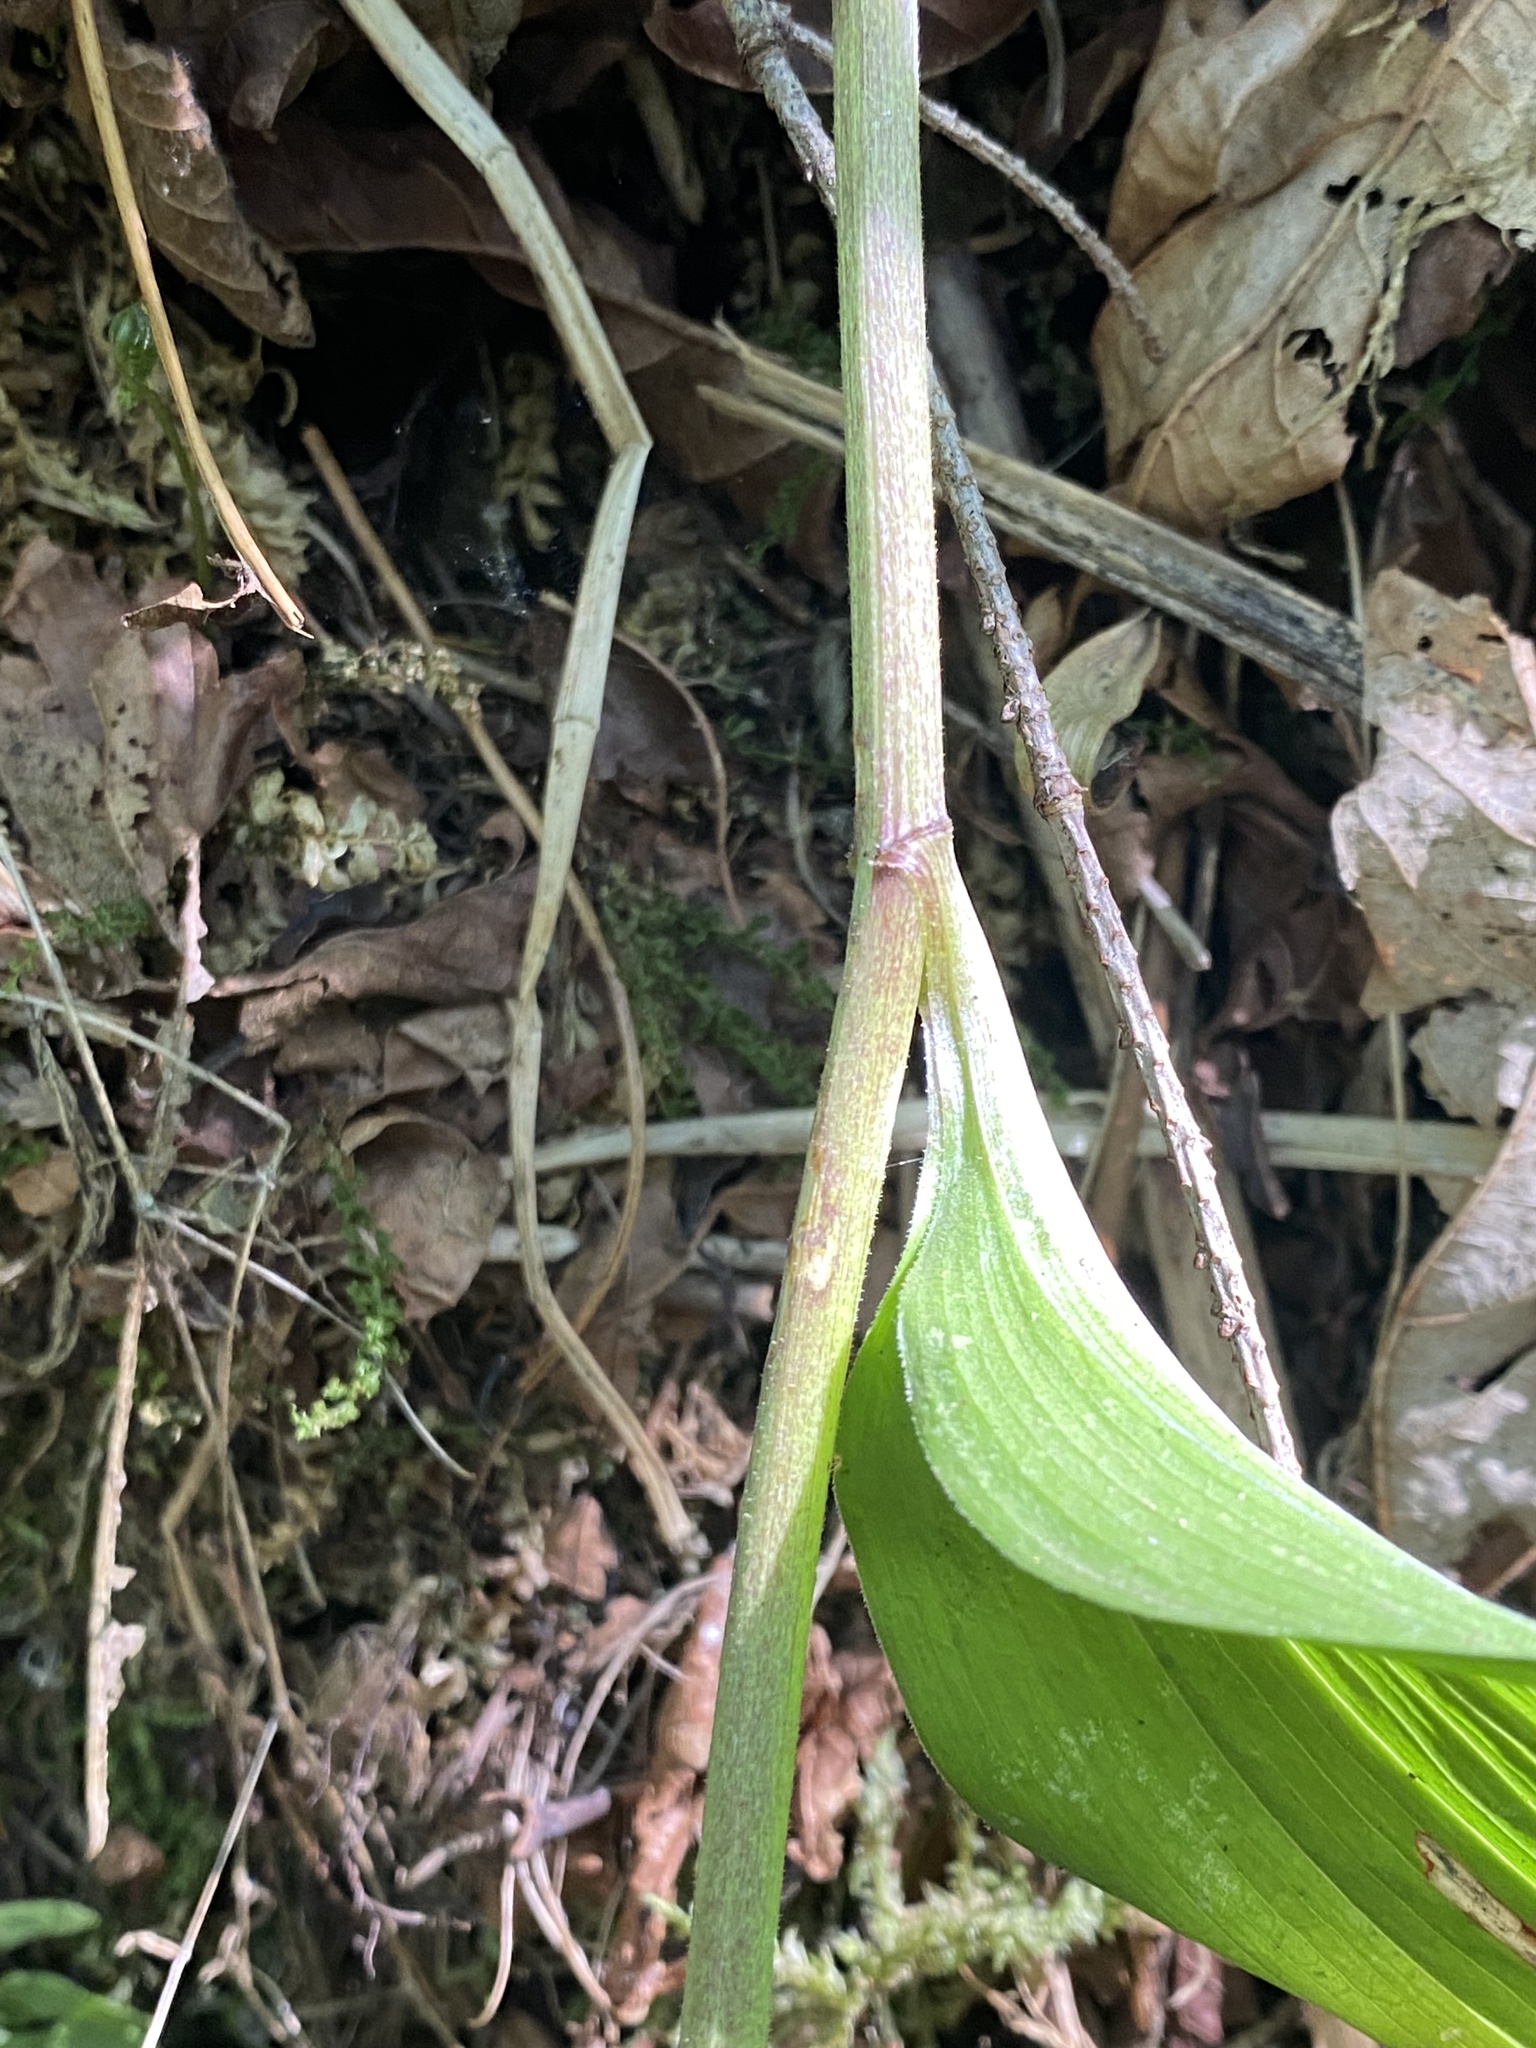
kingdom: Plantae
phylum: Tracheophyta
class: Liliopsida
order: Asparagales
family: Asparagaceae
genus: Maianthemum
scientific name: Maianthemum racemosum
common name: False spikenard
